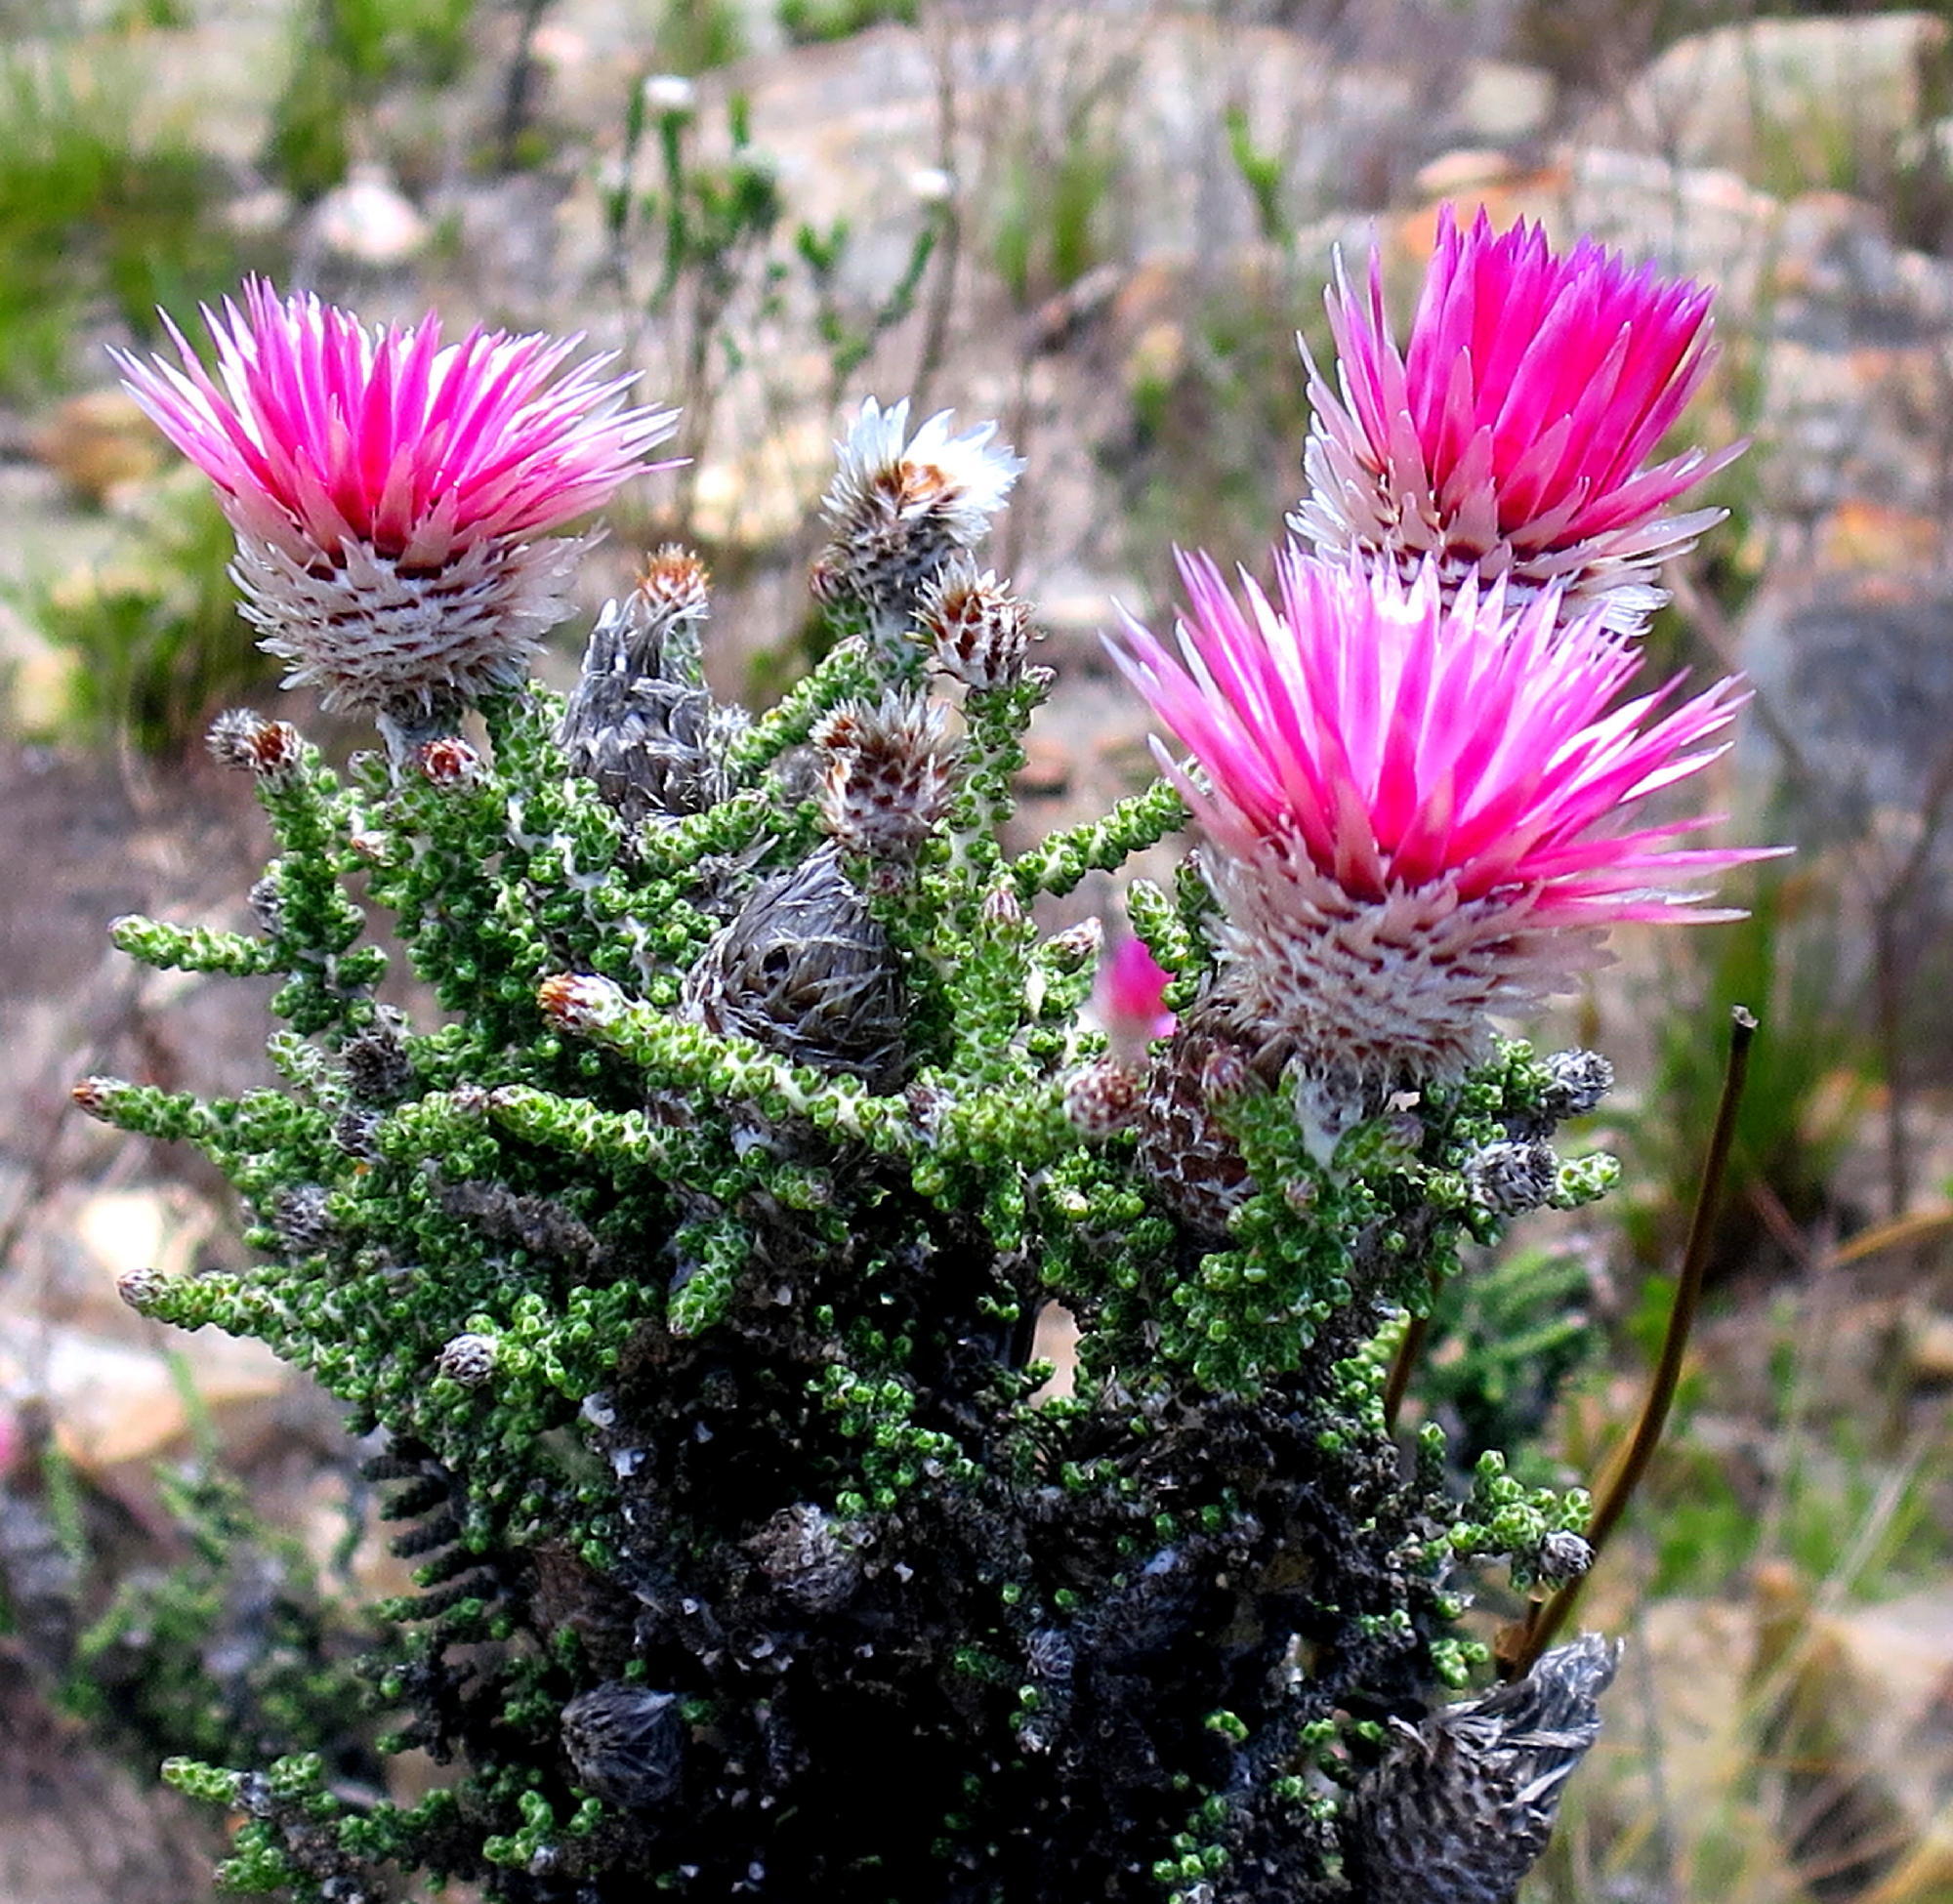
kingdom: Plantae
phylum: Tracheophyta
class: Magnoliopsida
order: Asterales
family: Asteraceae
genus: Phaenocoma
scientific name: Phaenocoma prolifera
